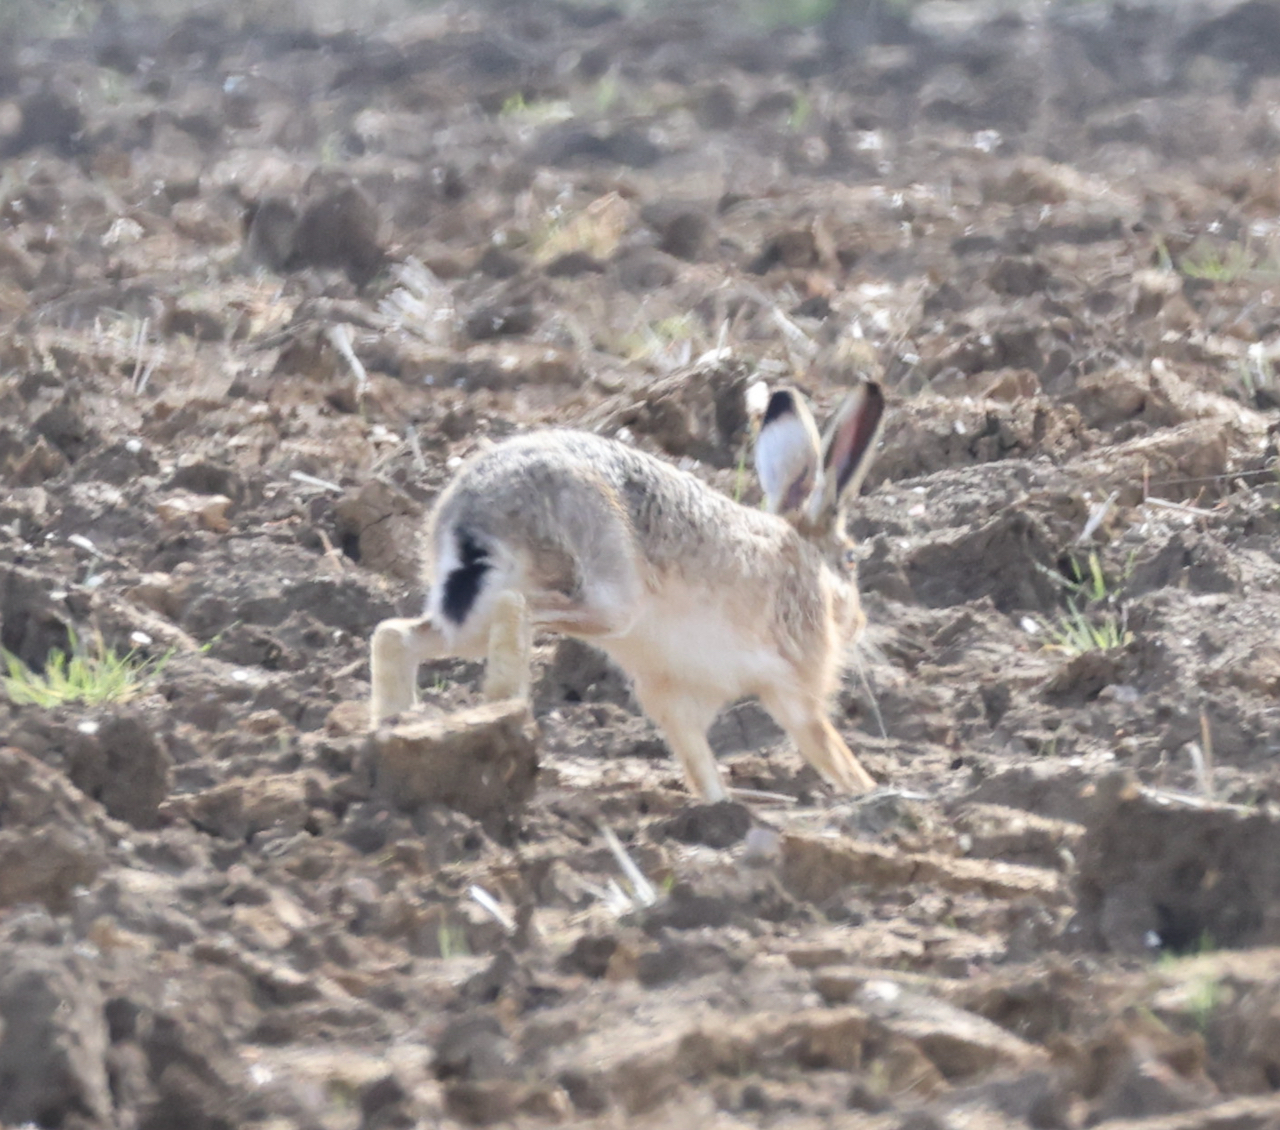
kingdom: Animalia
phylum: Chordata
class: Mammalia
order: Lagomorpha
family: Leporidae
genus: Lepus
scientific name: Lepus europaeus
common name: European hare
